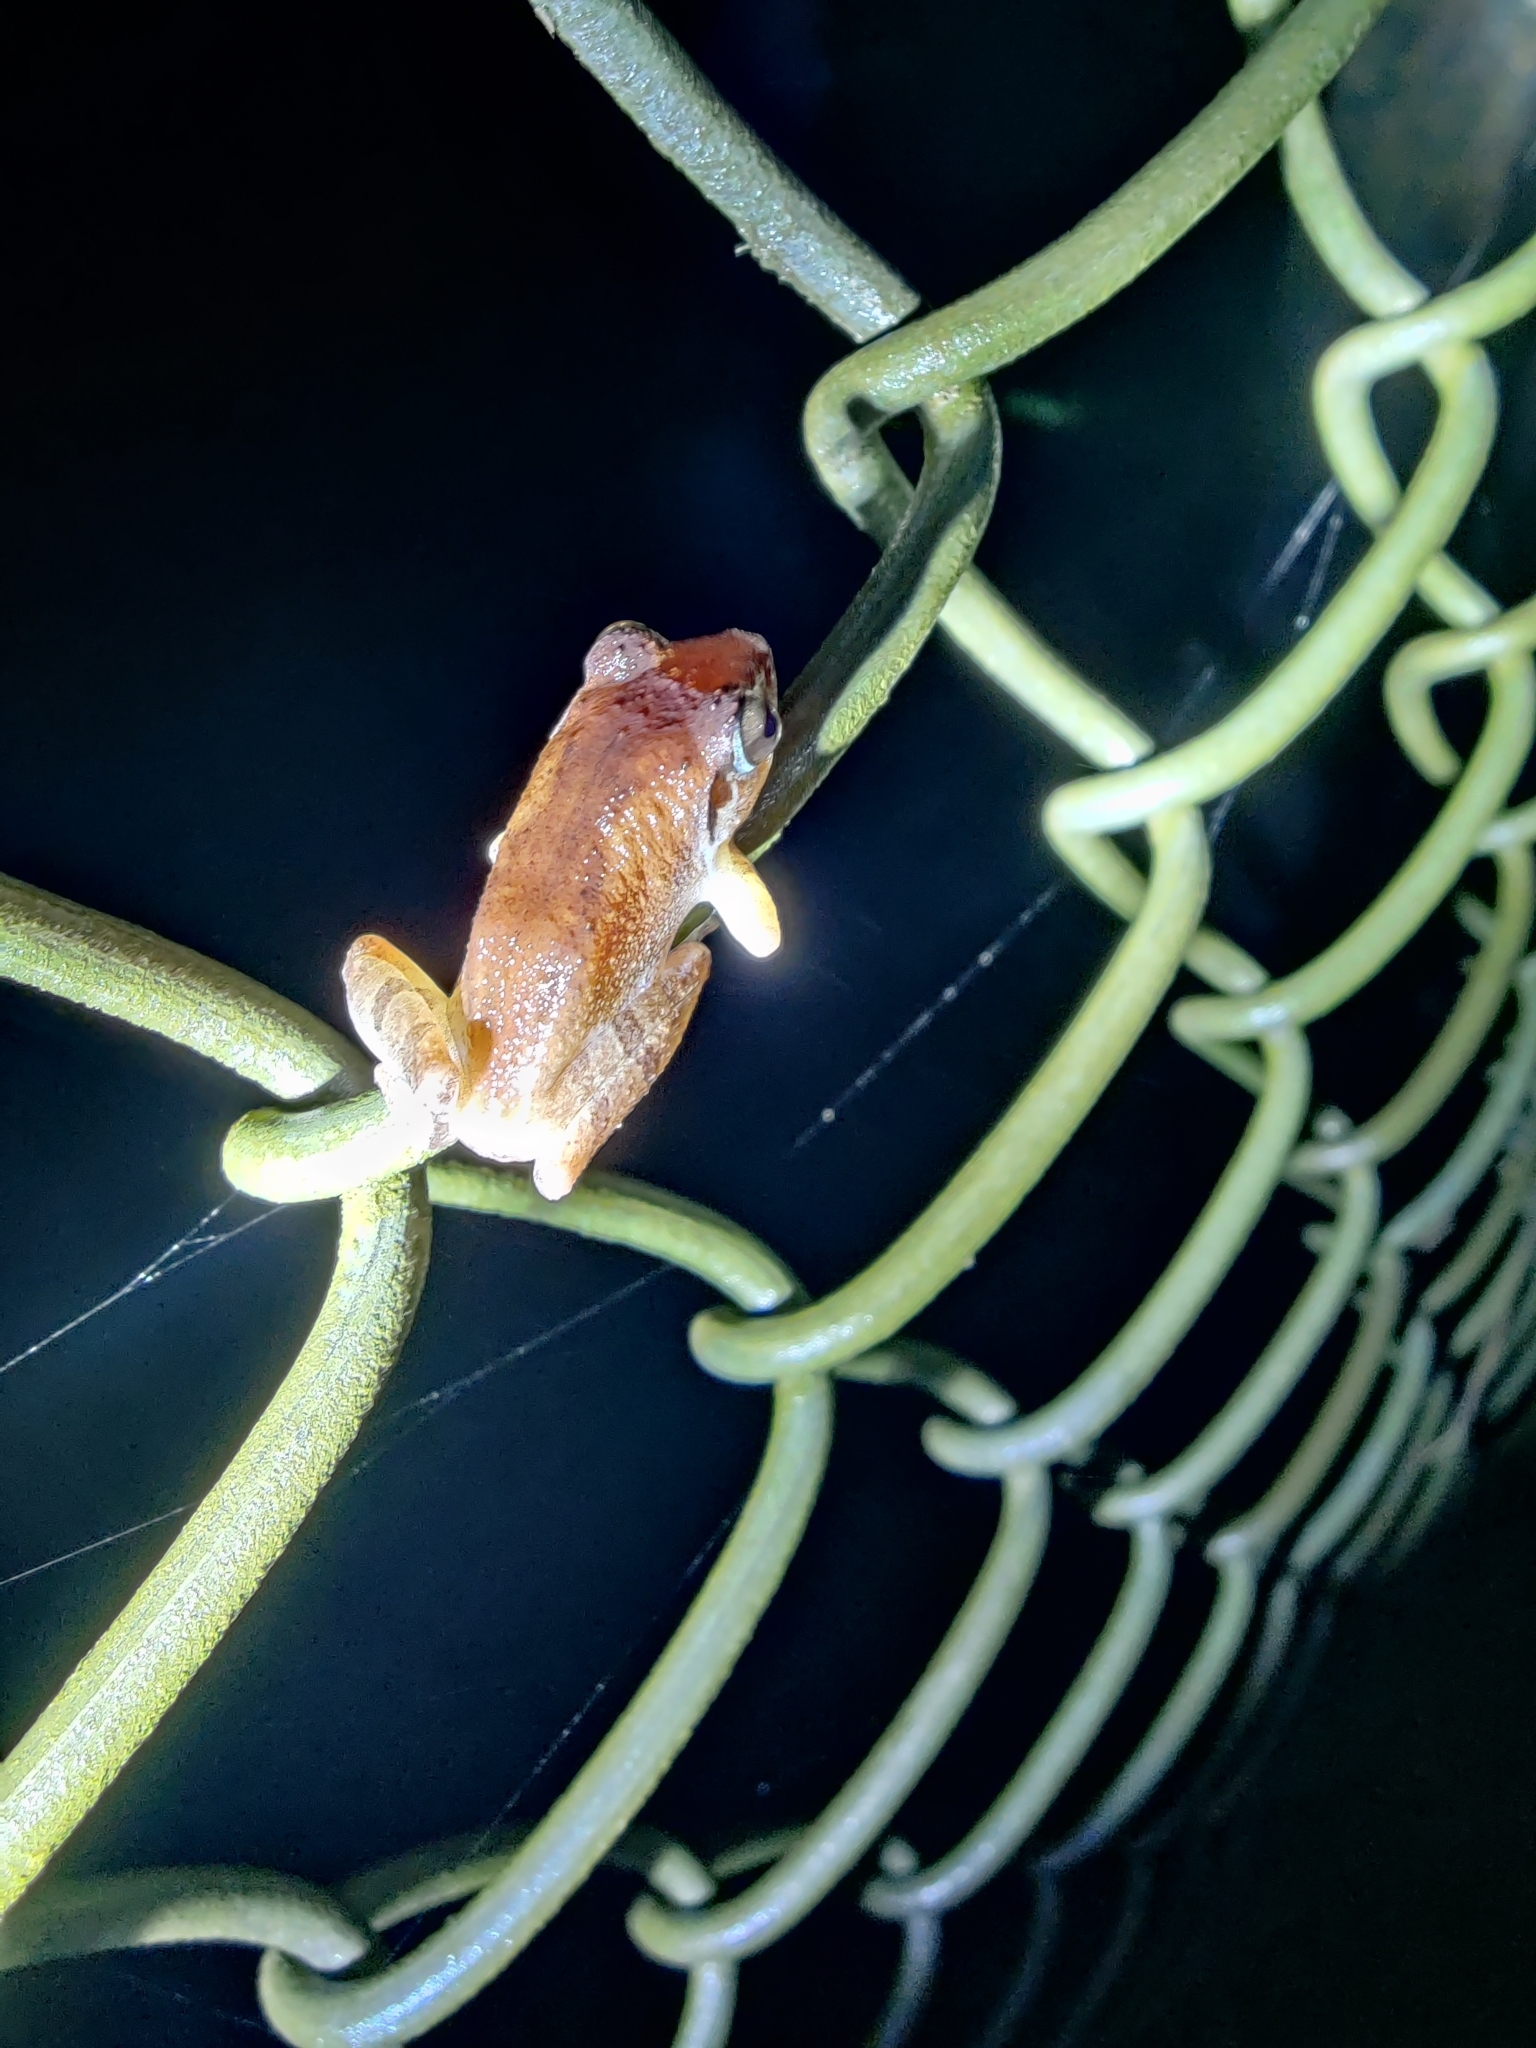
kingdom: Animalia
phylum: Chordata
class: Amphibia
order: Anura
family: Rhacophoridae
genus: Pseudophilautus
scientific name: Pseudophilautus wynaadensis
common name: Dark-eared bush frog
